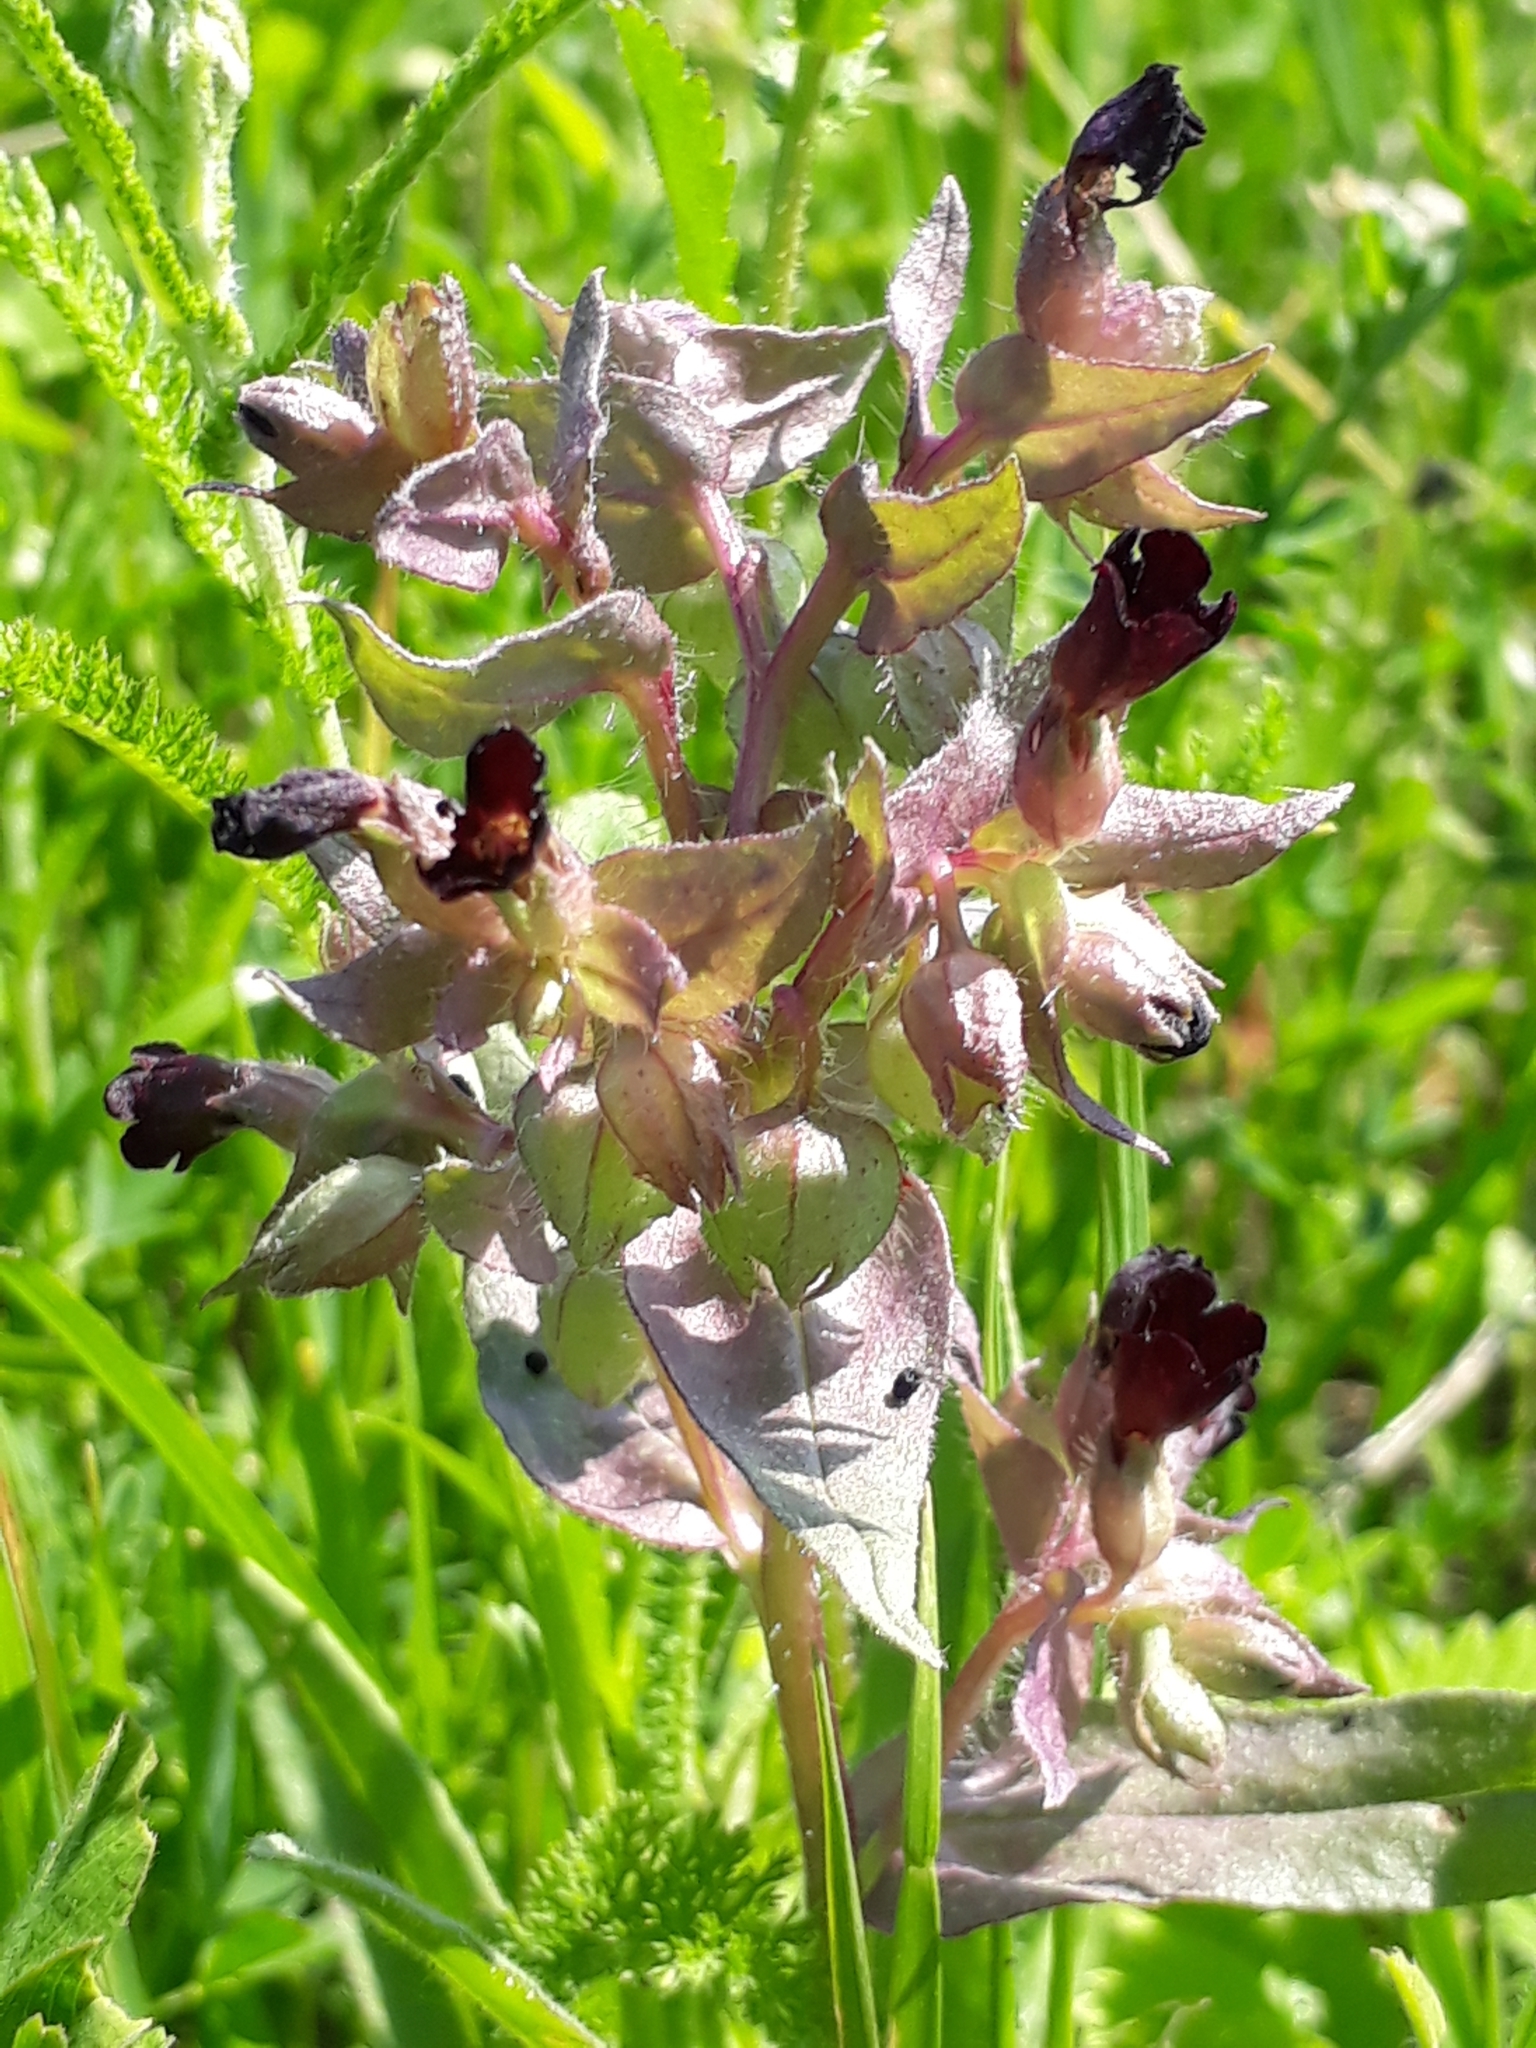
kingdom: Plantae
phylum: Tracheophyta
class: Magnoliopsida
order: Boraginales
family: Boraginaceae
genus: Nonea
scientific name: Nonea pulla
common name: Brown nonea
